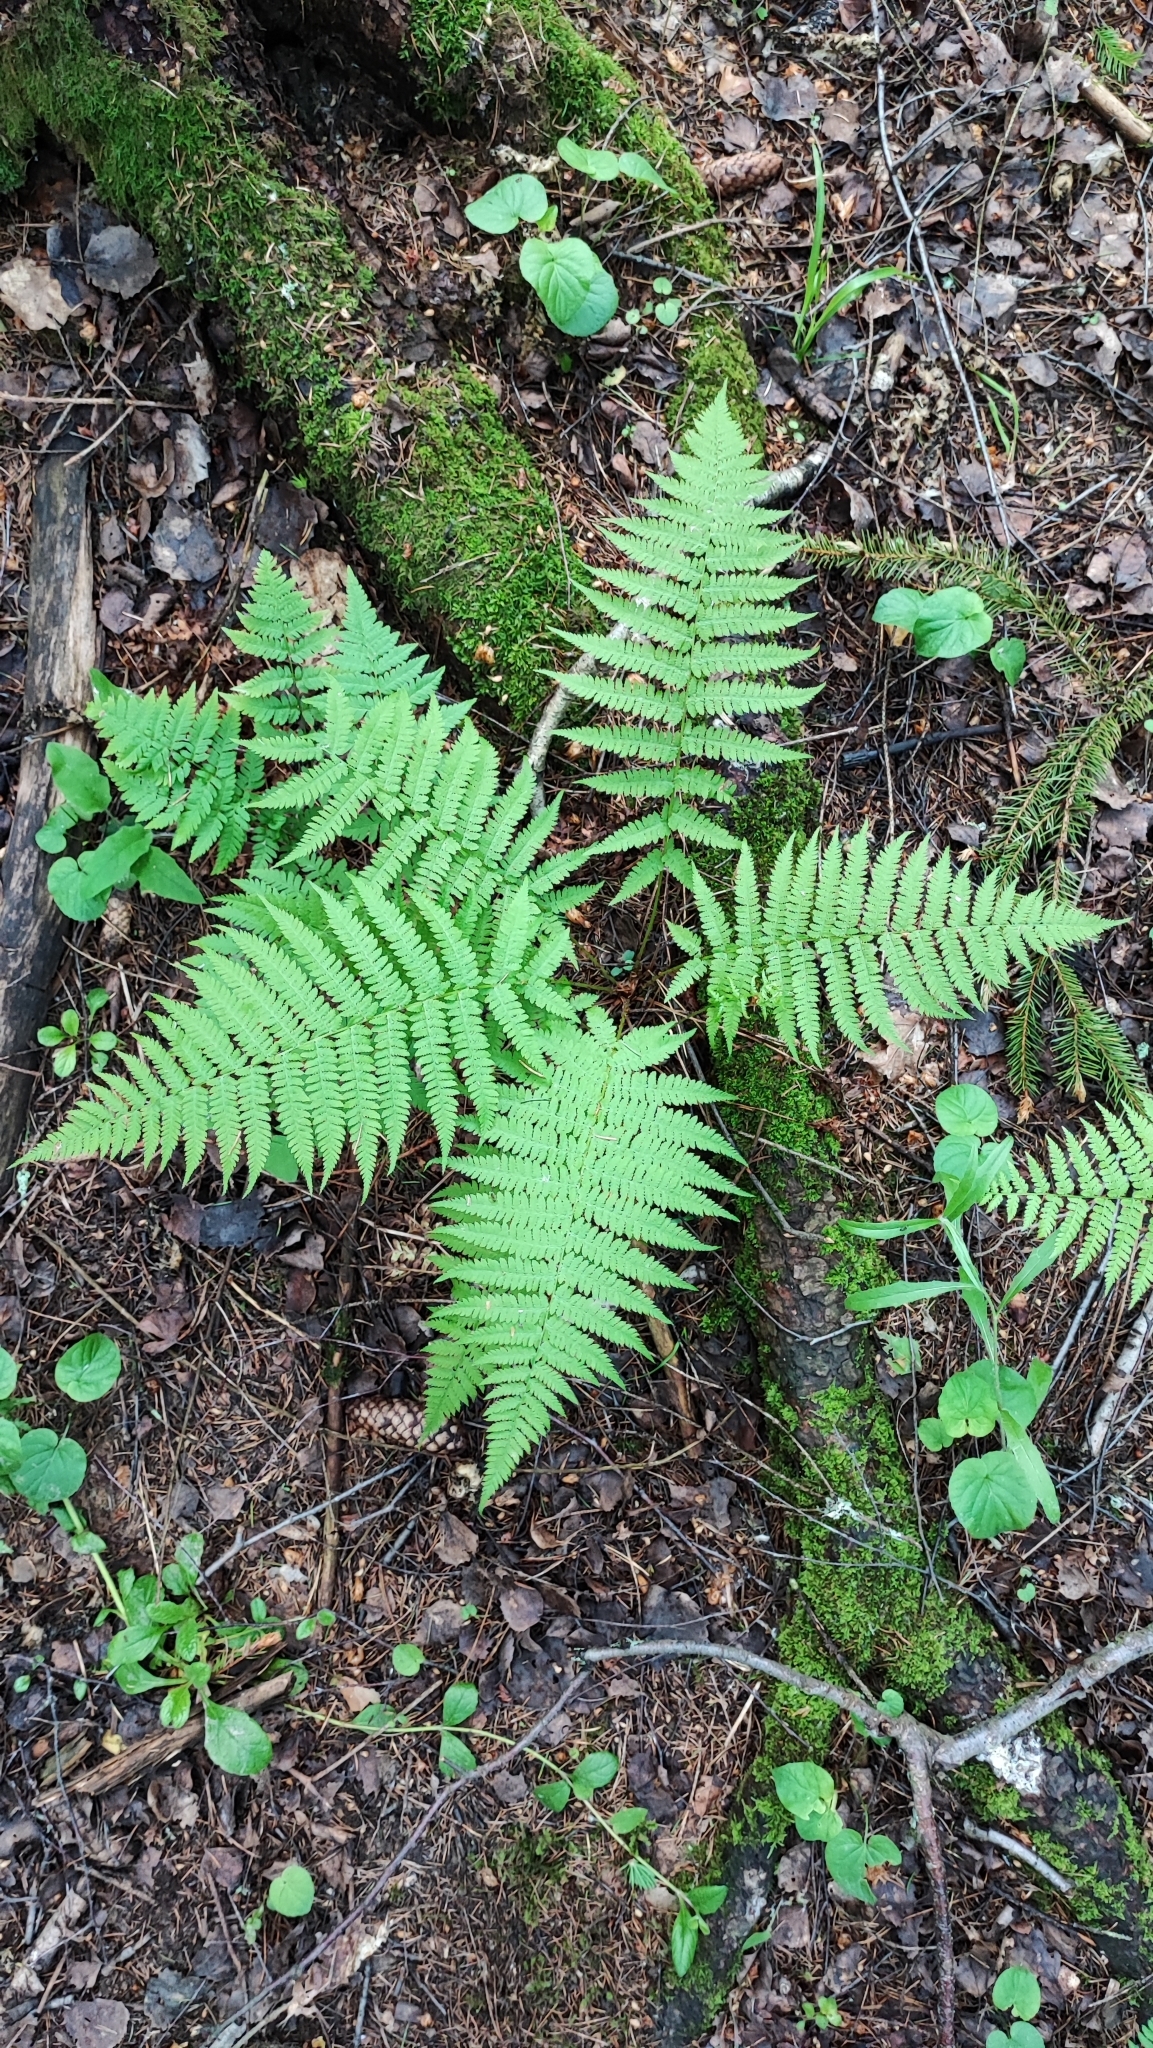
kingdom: Plantae
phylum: Tracheophyta
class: Polypodiopsida
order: Polypodiales
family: Athyriaceae
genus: Athyrium
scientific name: Athyrium filix-femina
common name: Lady fern
